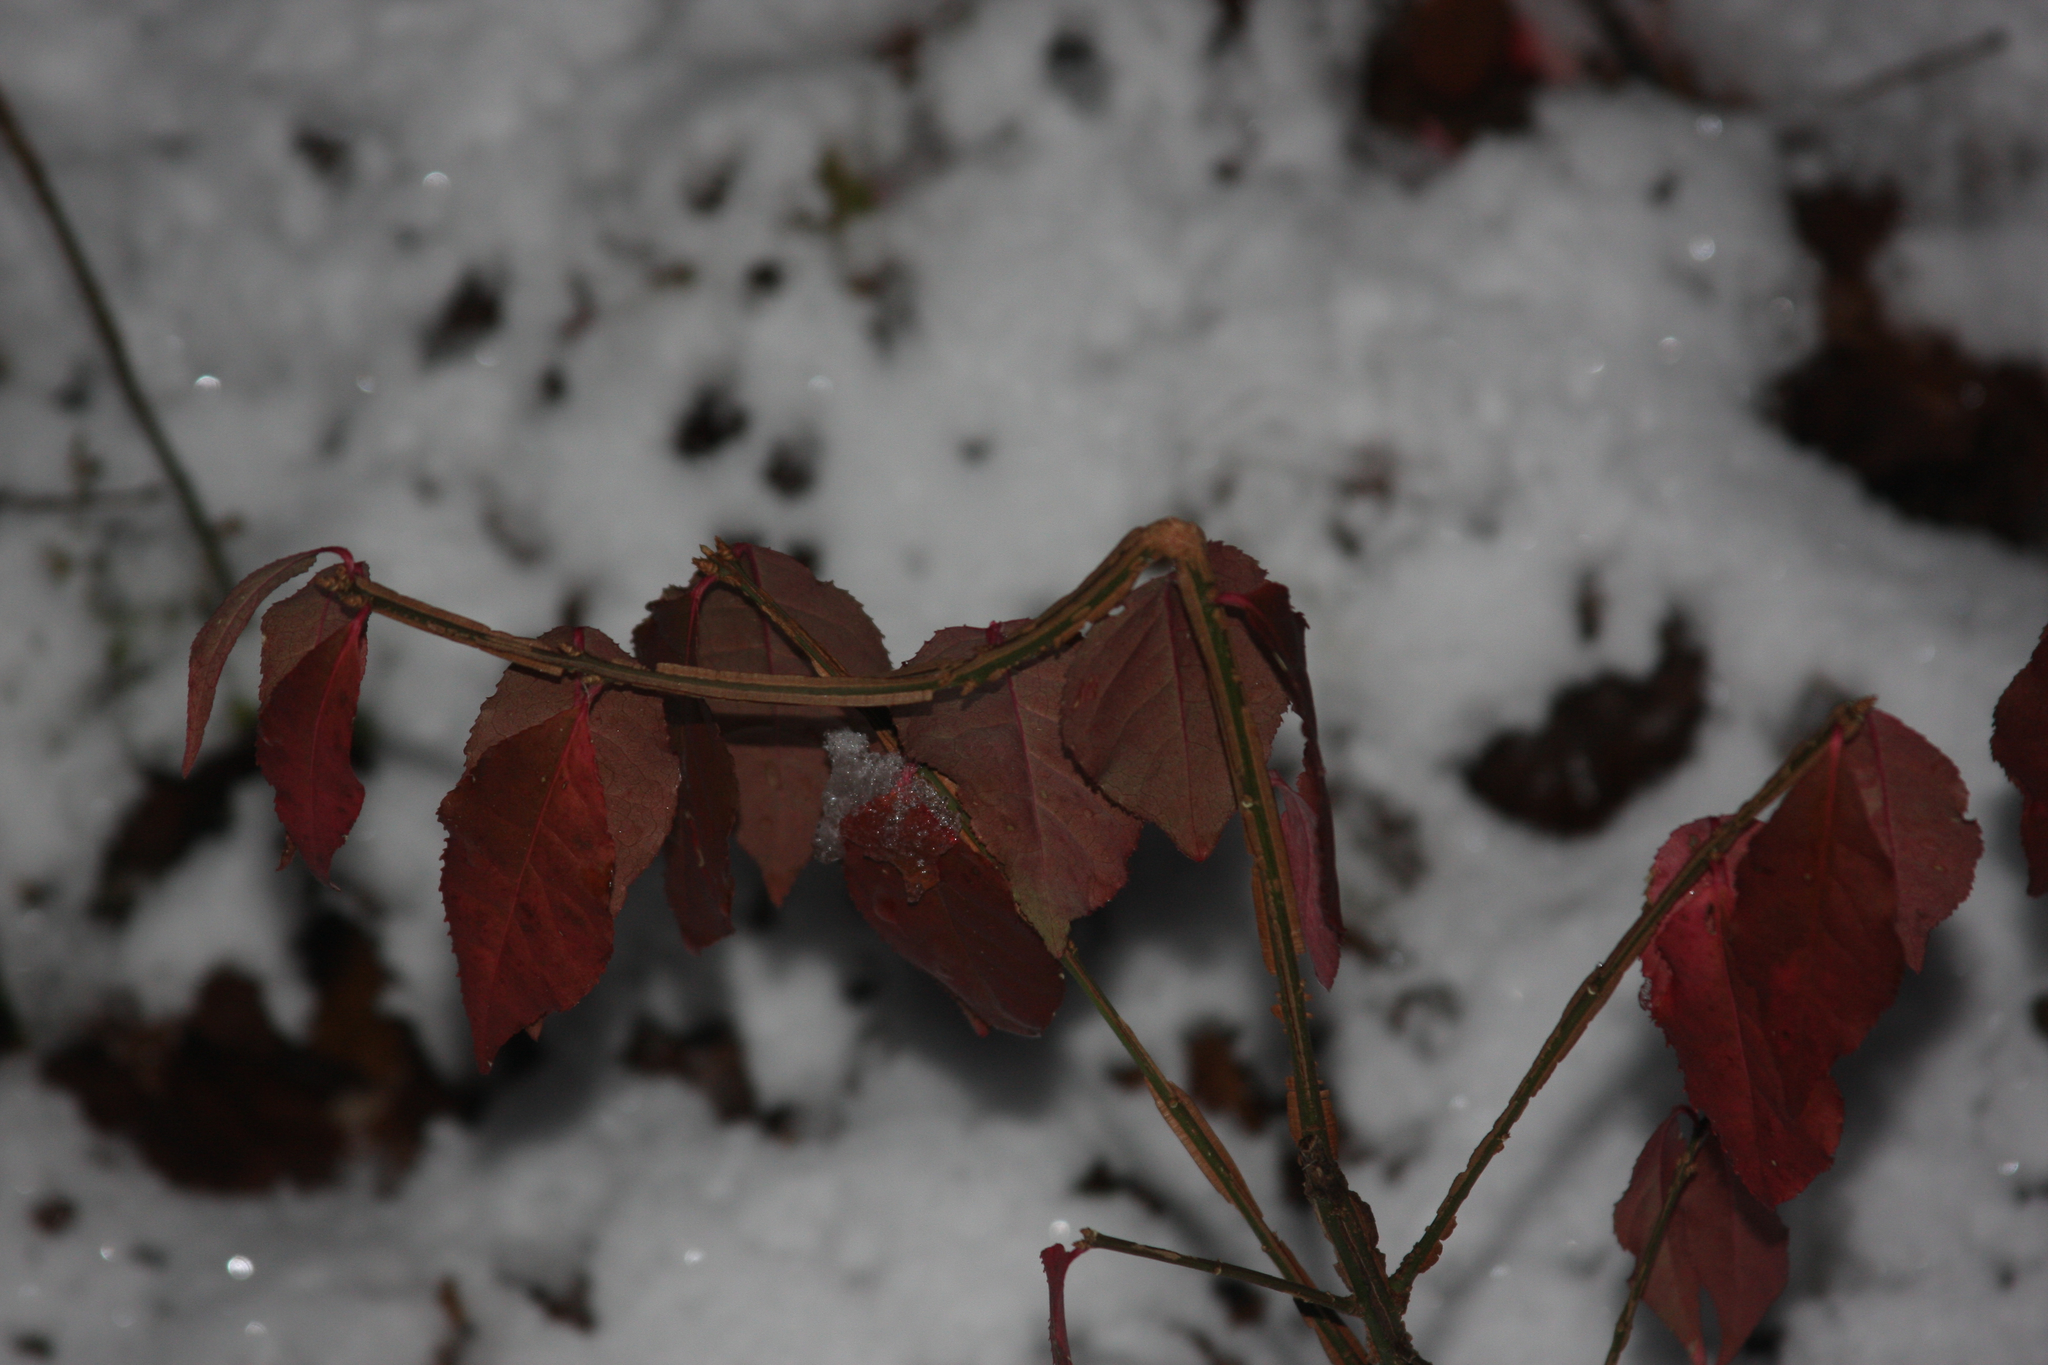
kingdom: Plantae
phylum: Tracheophyta
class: Magnoliopsida
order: Celastrales
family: Celastraceae
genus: Euonymus
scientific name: Euonymus alatus
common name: Winged euonymus
